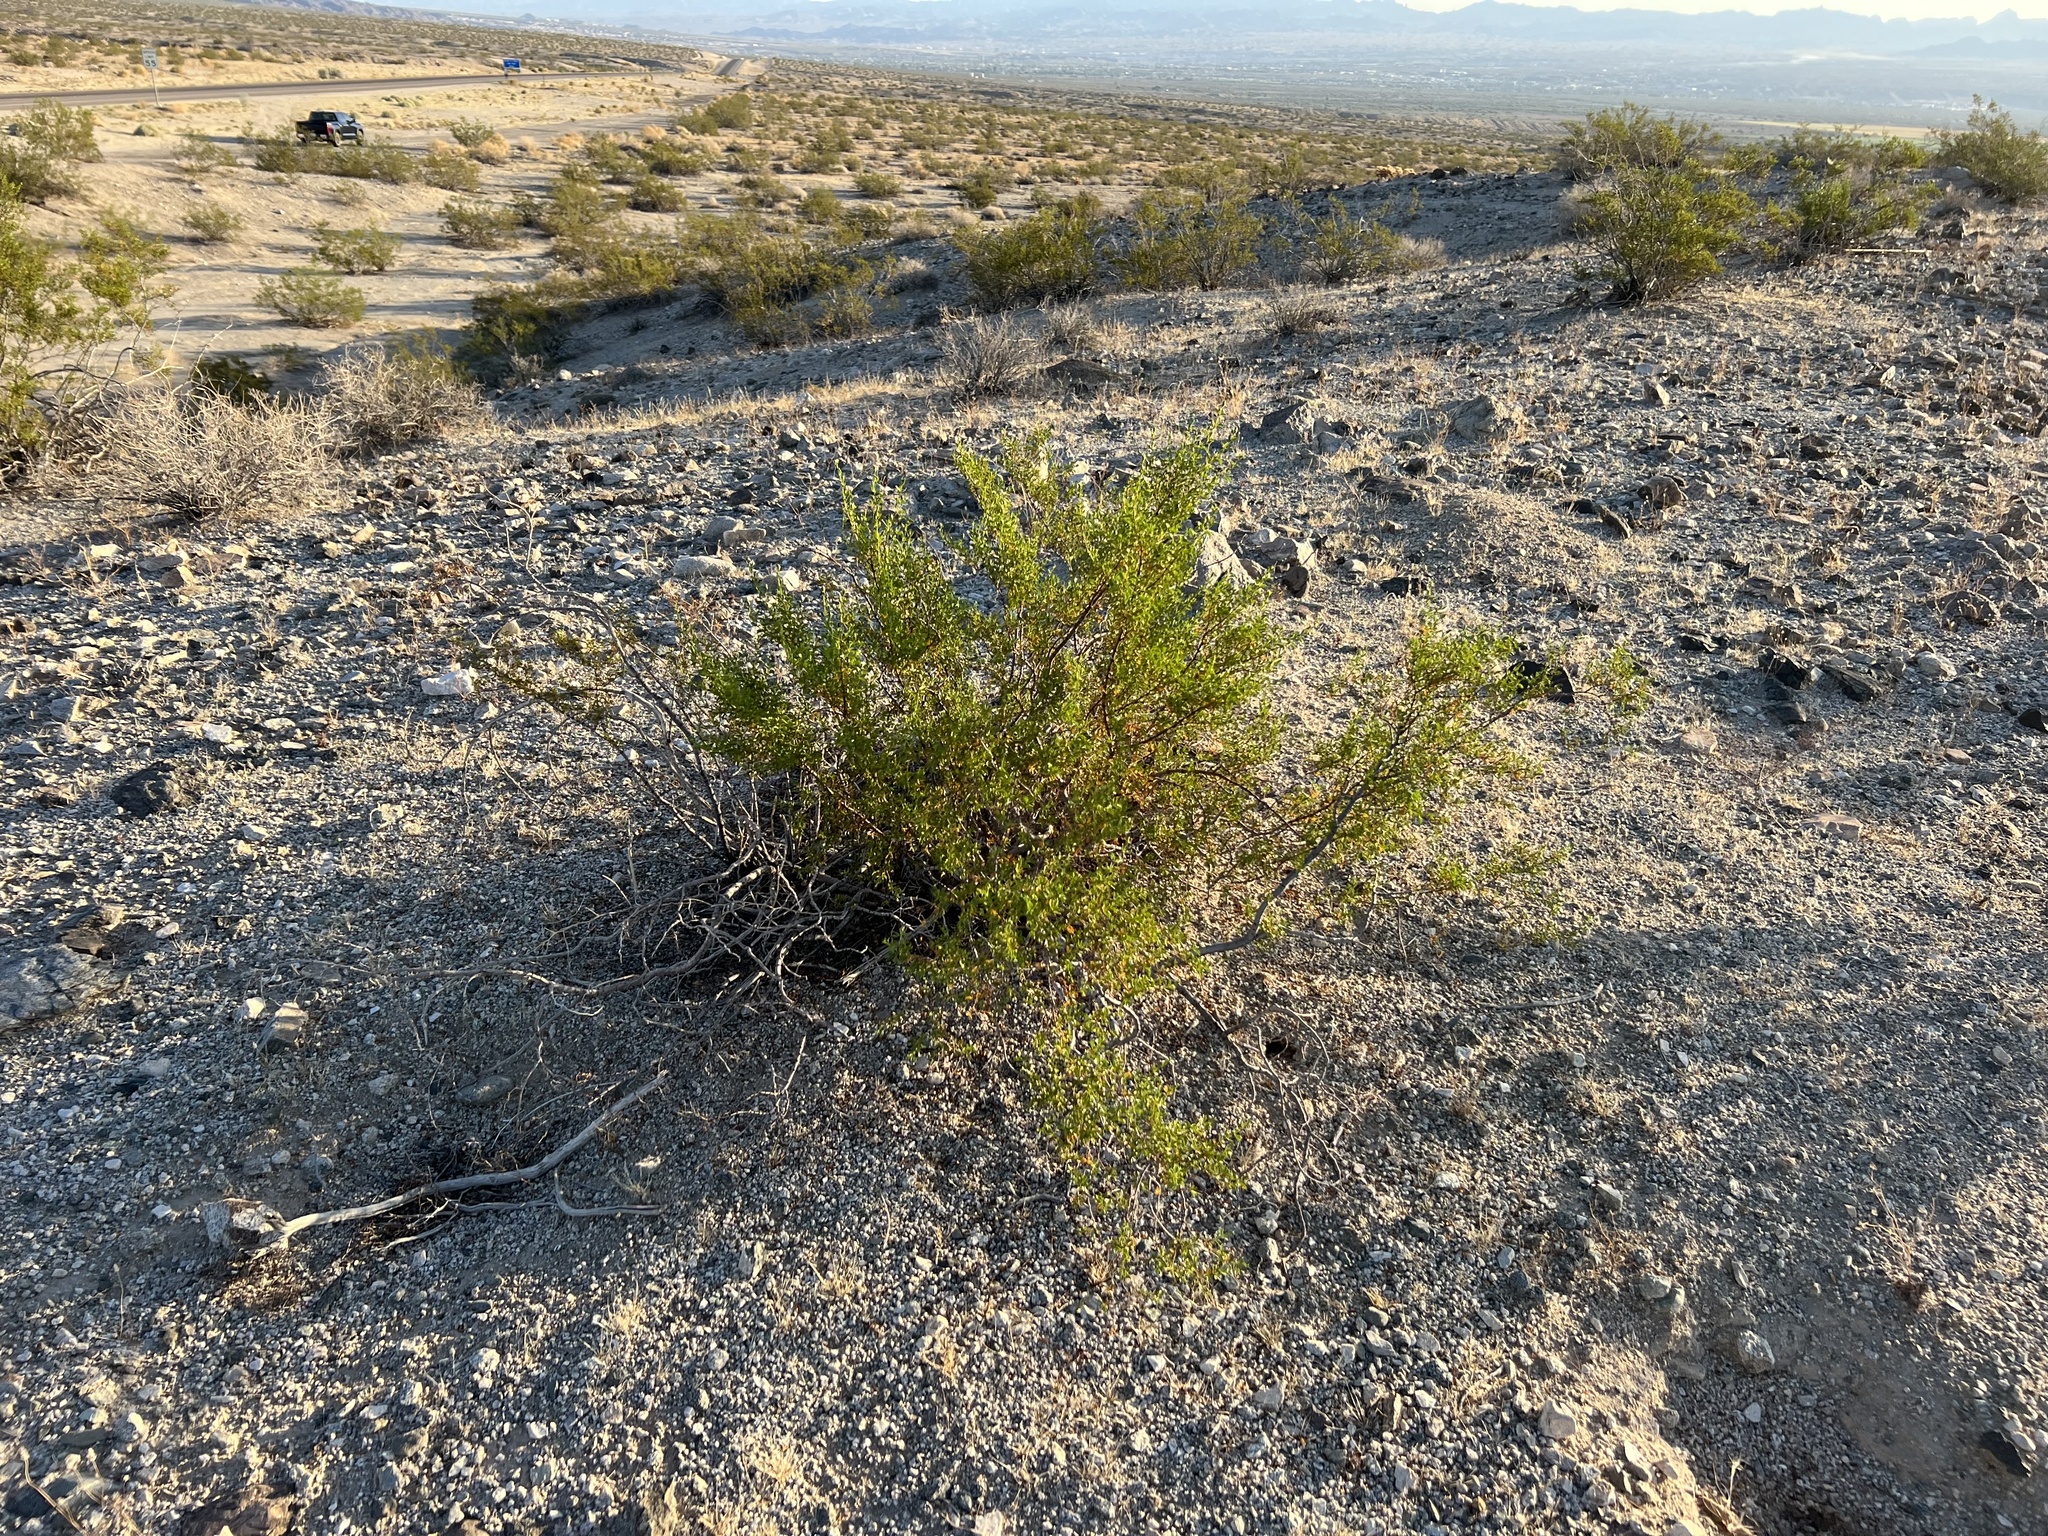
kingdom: Plantae
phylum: Tracheophyta
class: Magnoliopsida
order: Zygophyllales
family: Zygophyllaceae
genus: Larrea
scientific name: Larrea tridentata
